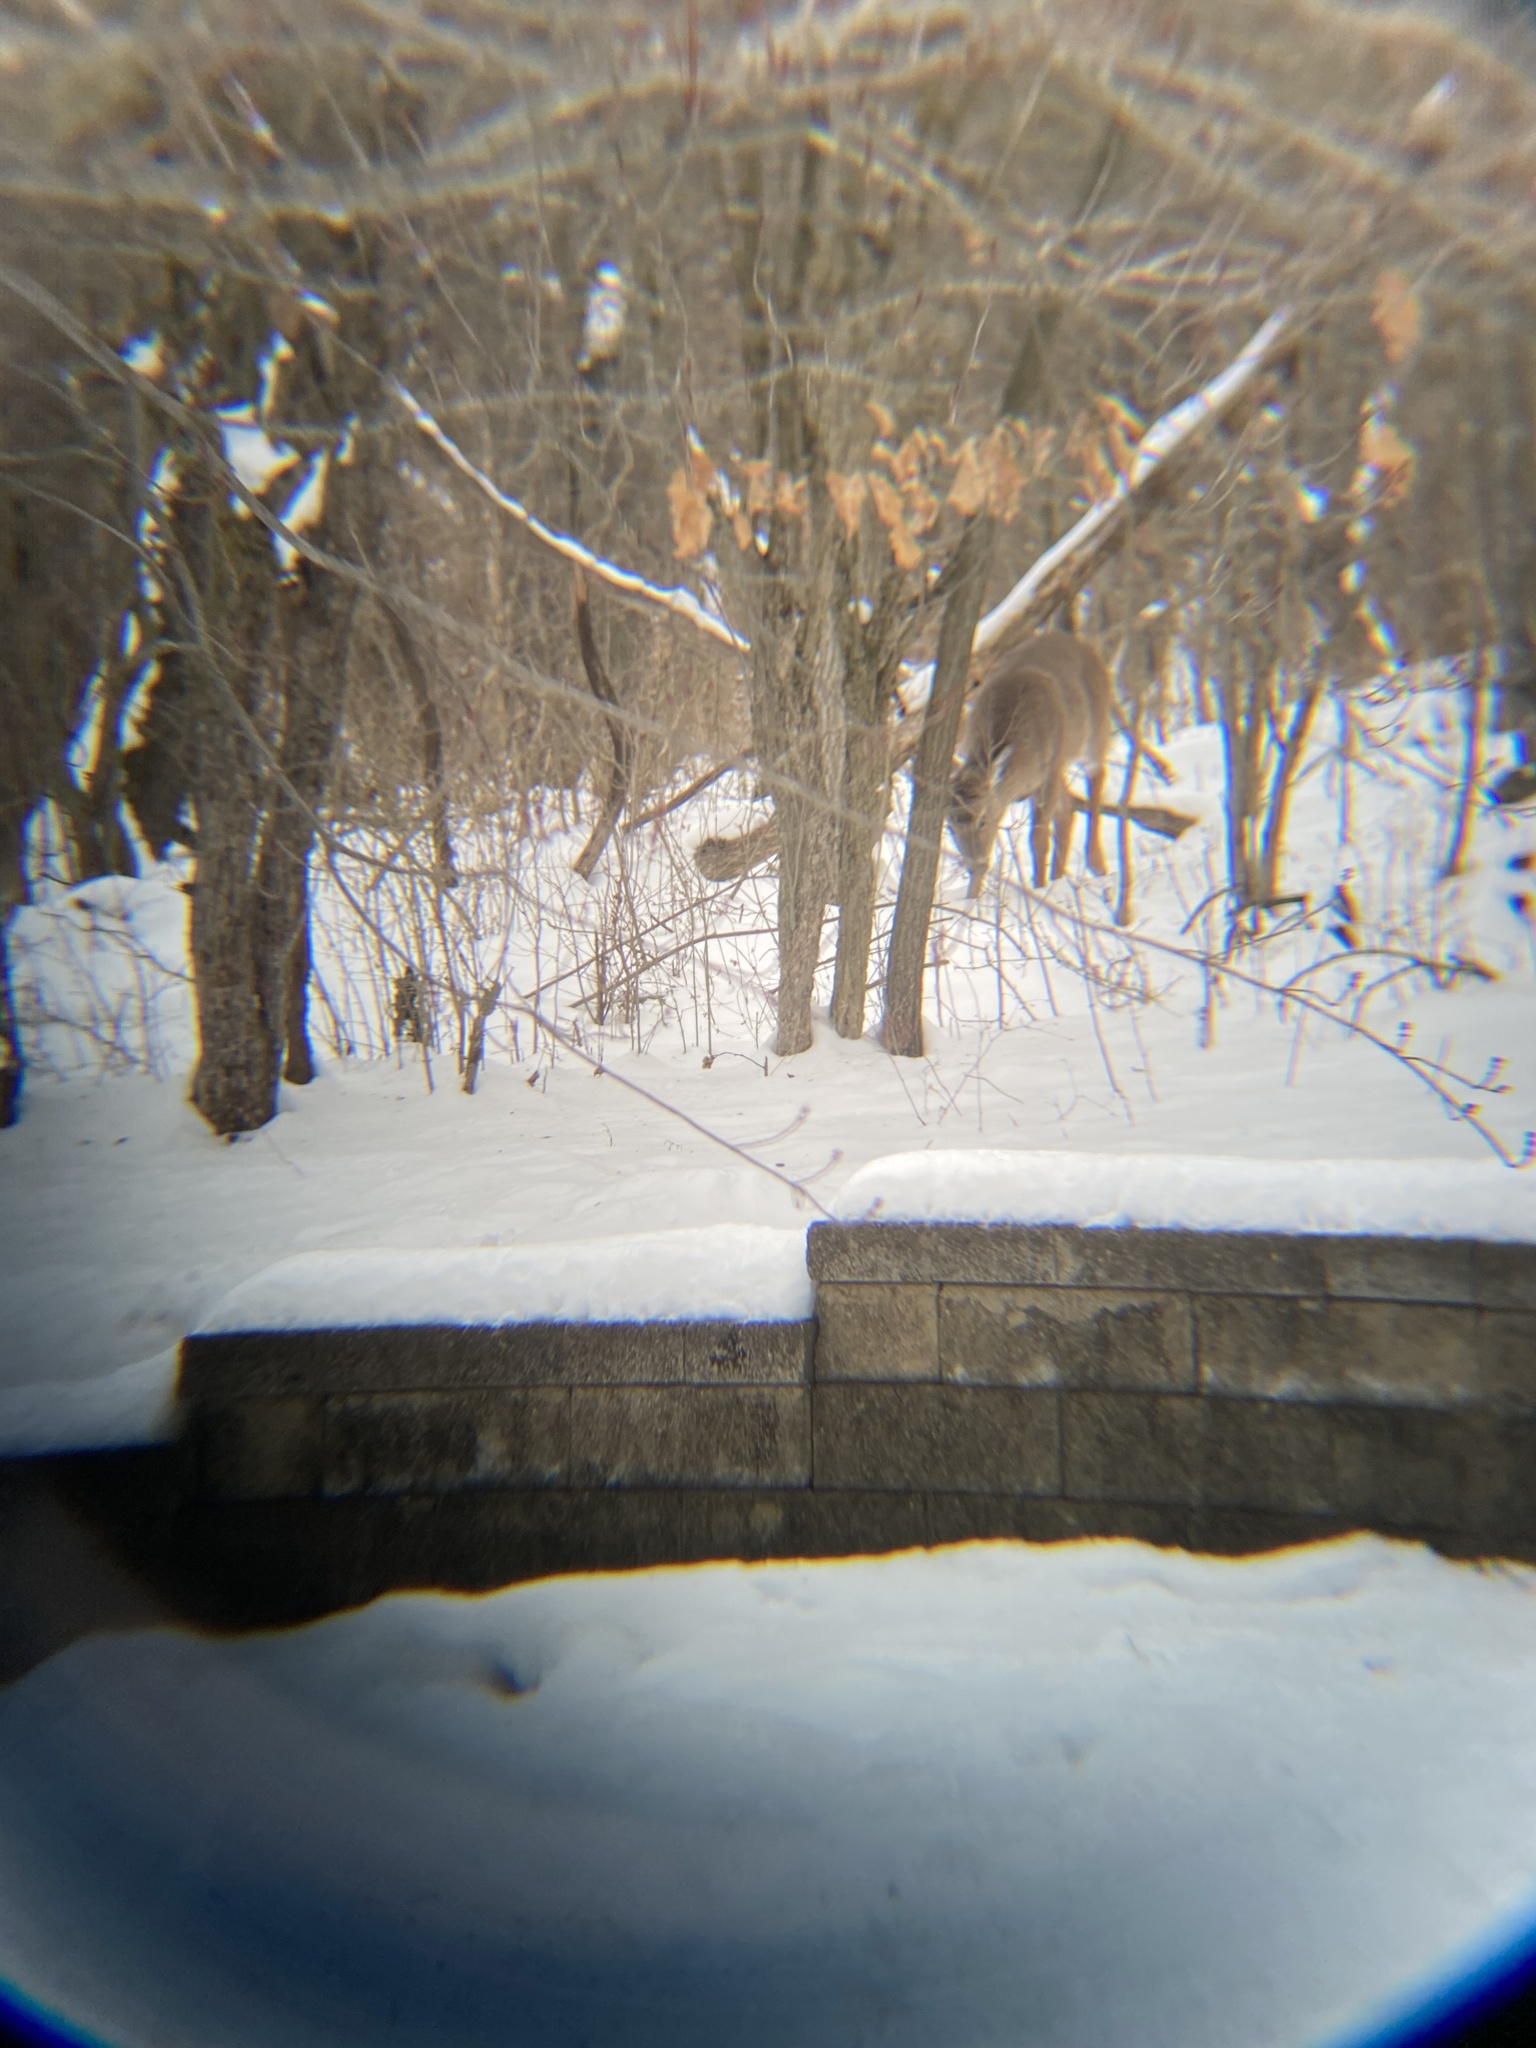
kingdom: Animalia
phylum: Chordata
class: Mammalia
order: Artiodactyla
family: Cervidae
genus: Odocoileus
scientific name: Odocoileus virginianus
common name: White-tailed deer
